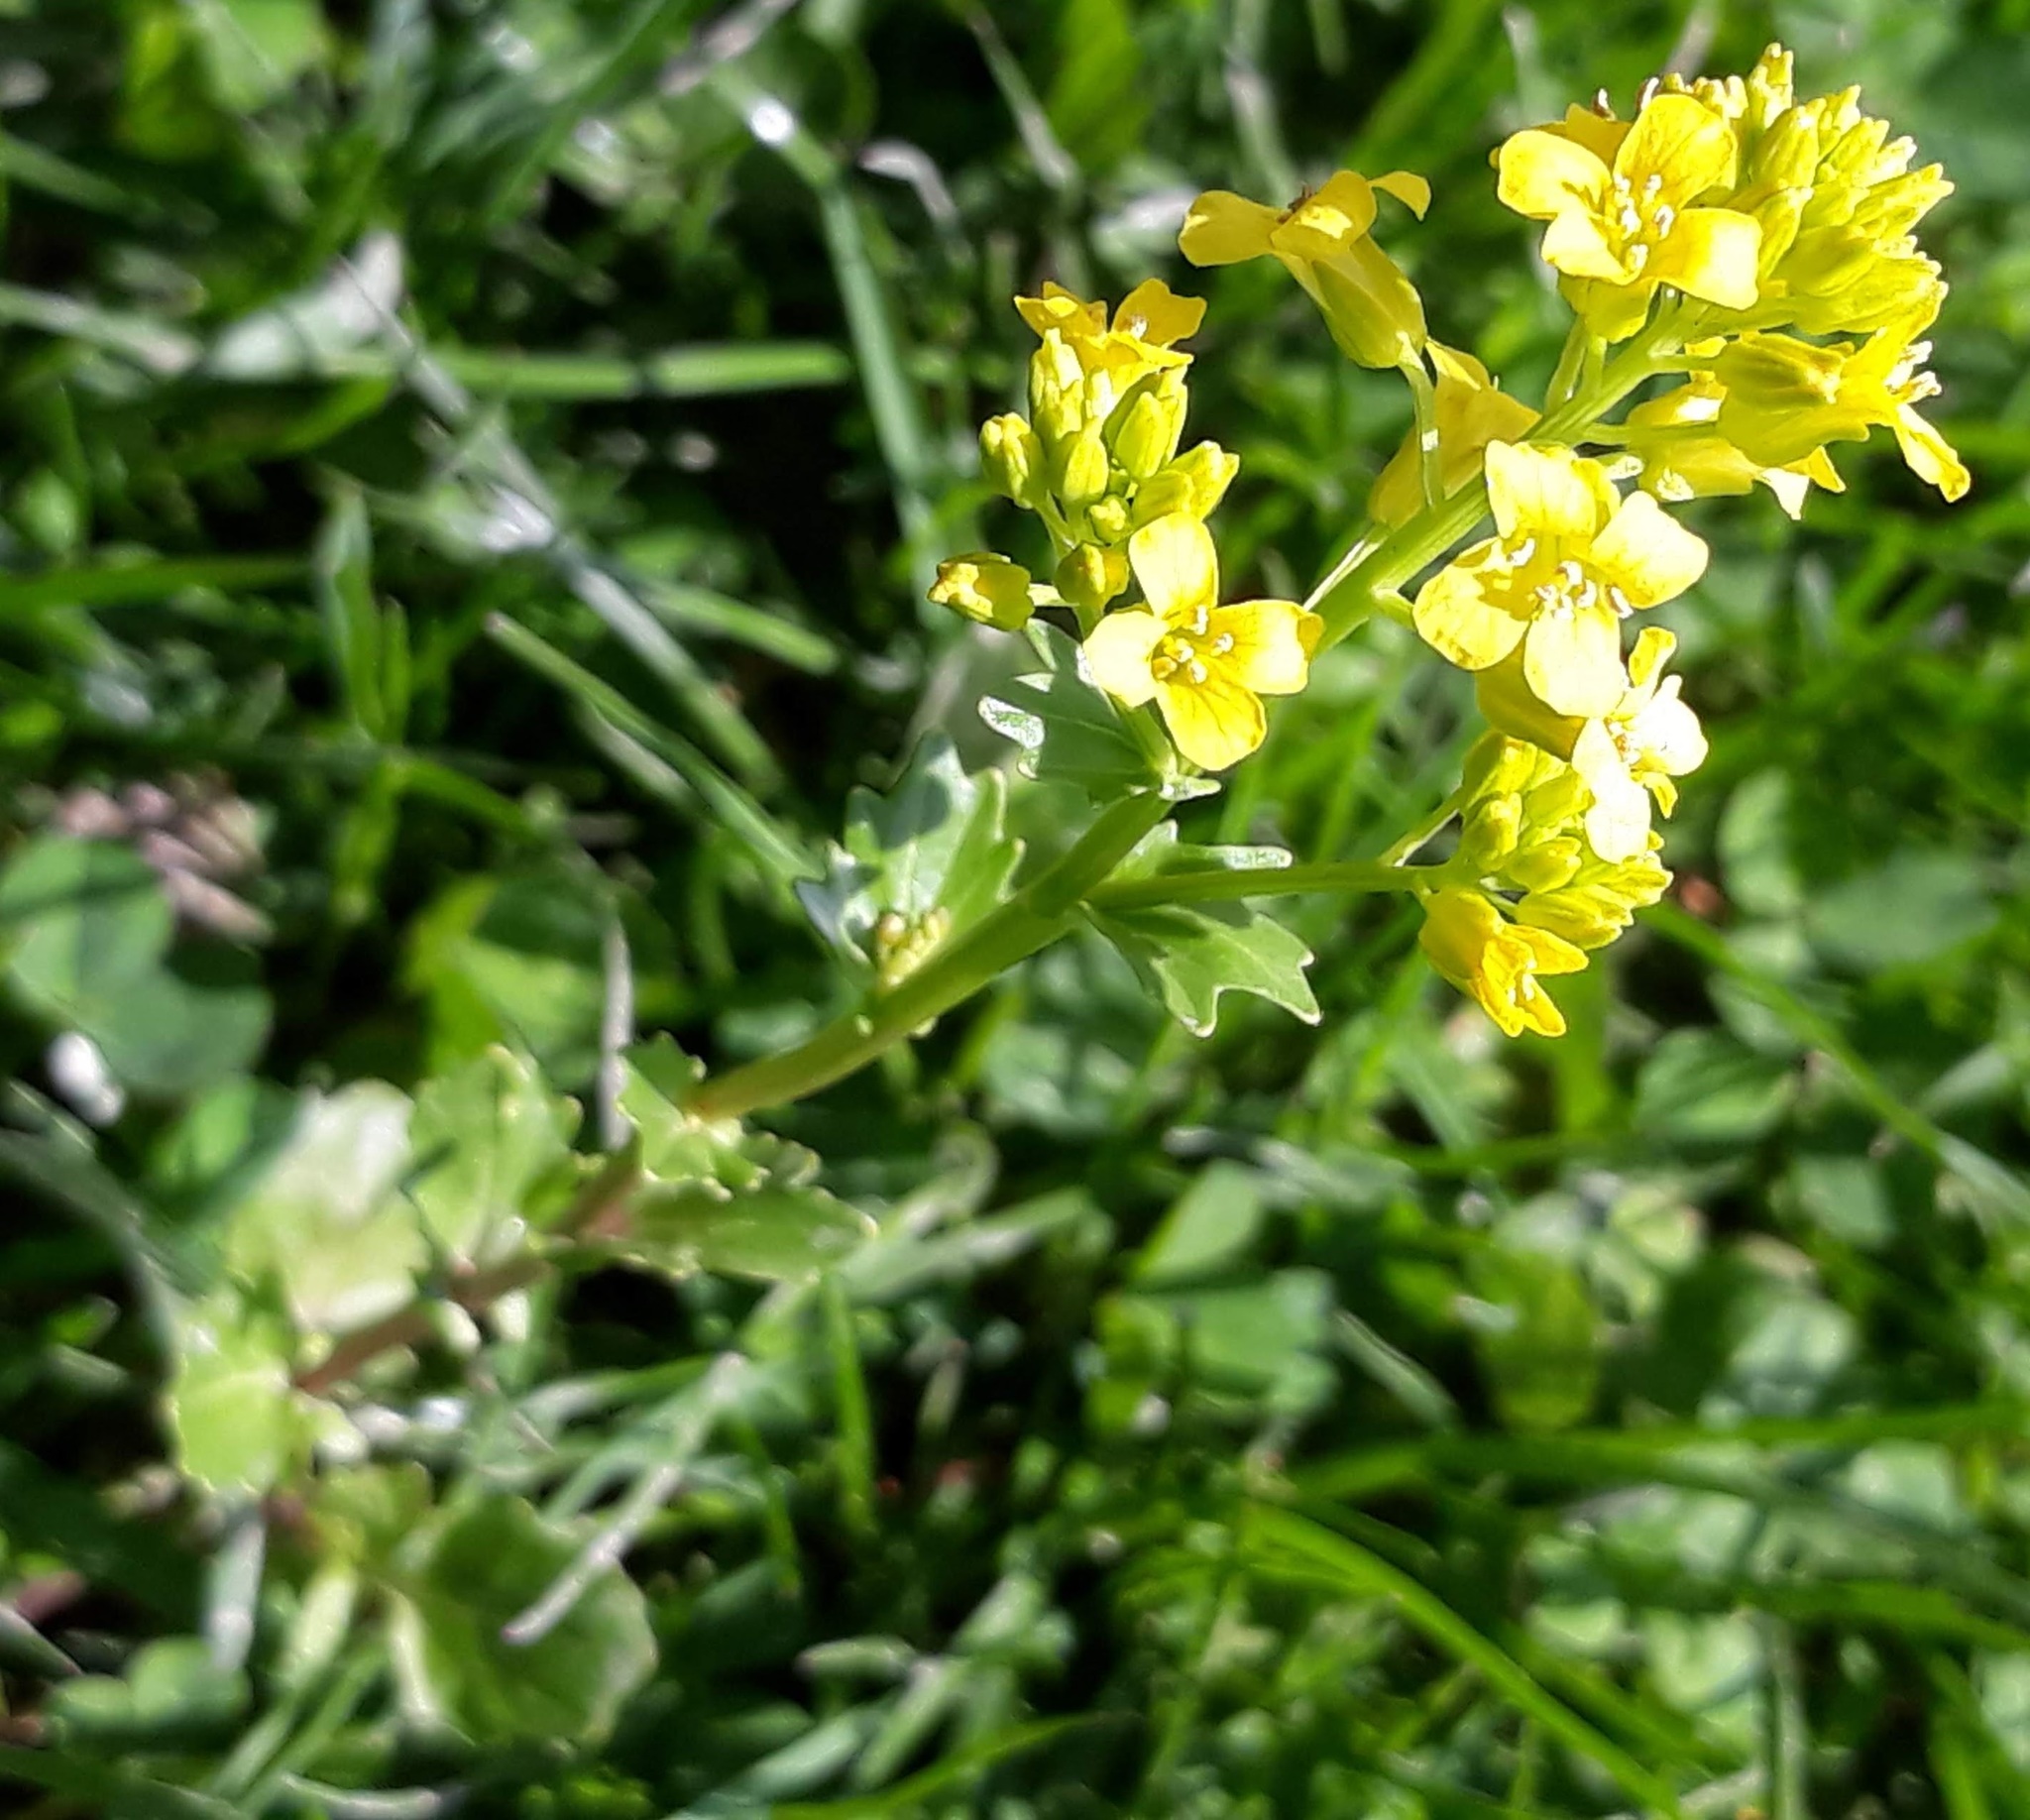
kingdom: Plantae
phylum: Tracheophyta
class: Magnoliopsida
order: Brassicales
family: Brassicaceae
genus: Barbarea
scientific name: Barbarea vulgaris
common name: Cressy-greens
